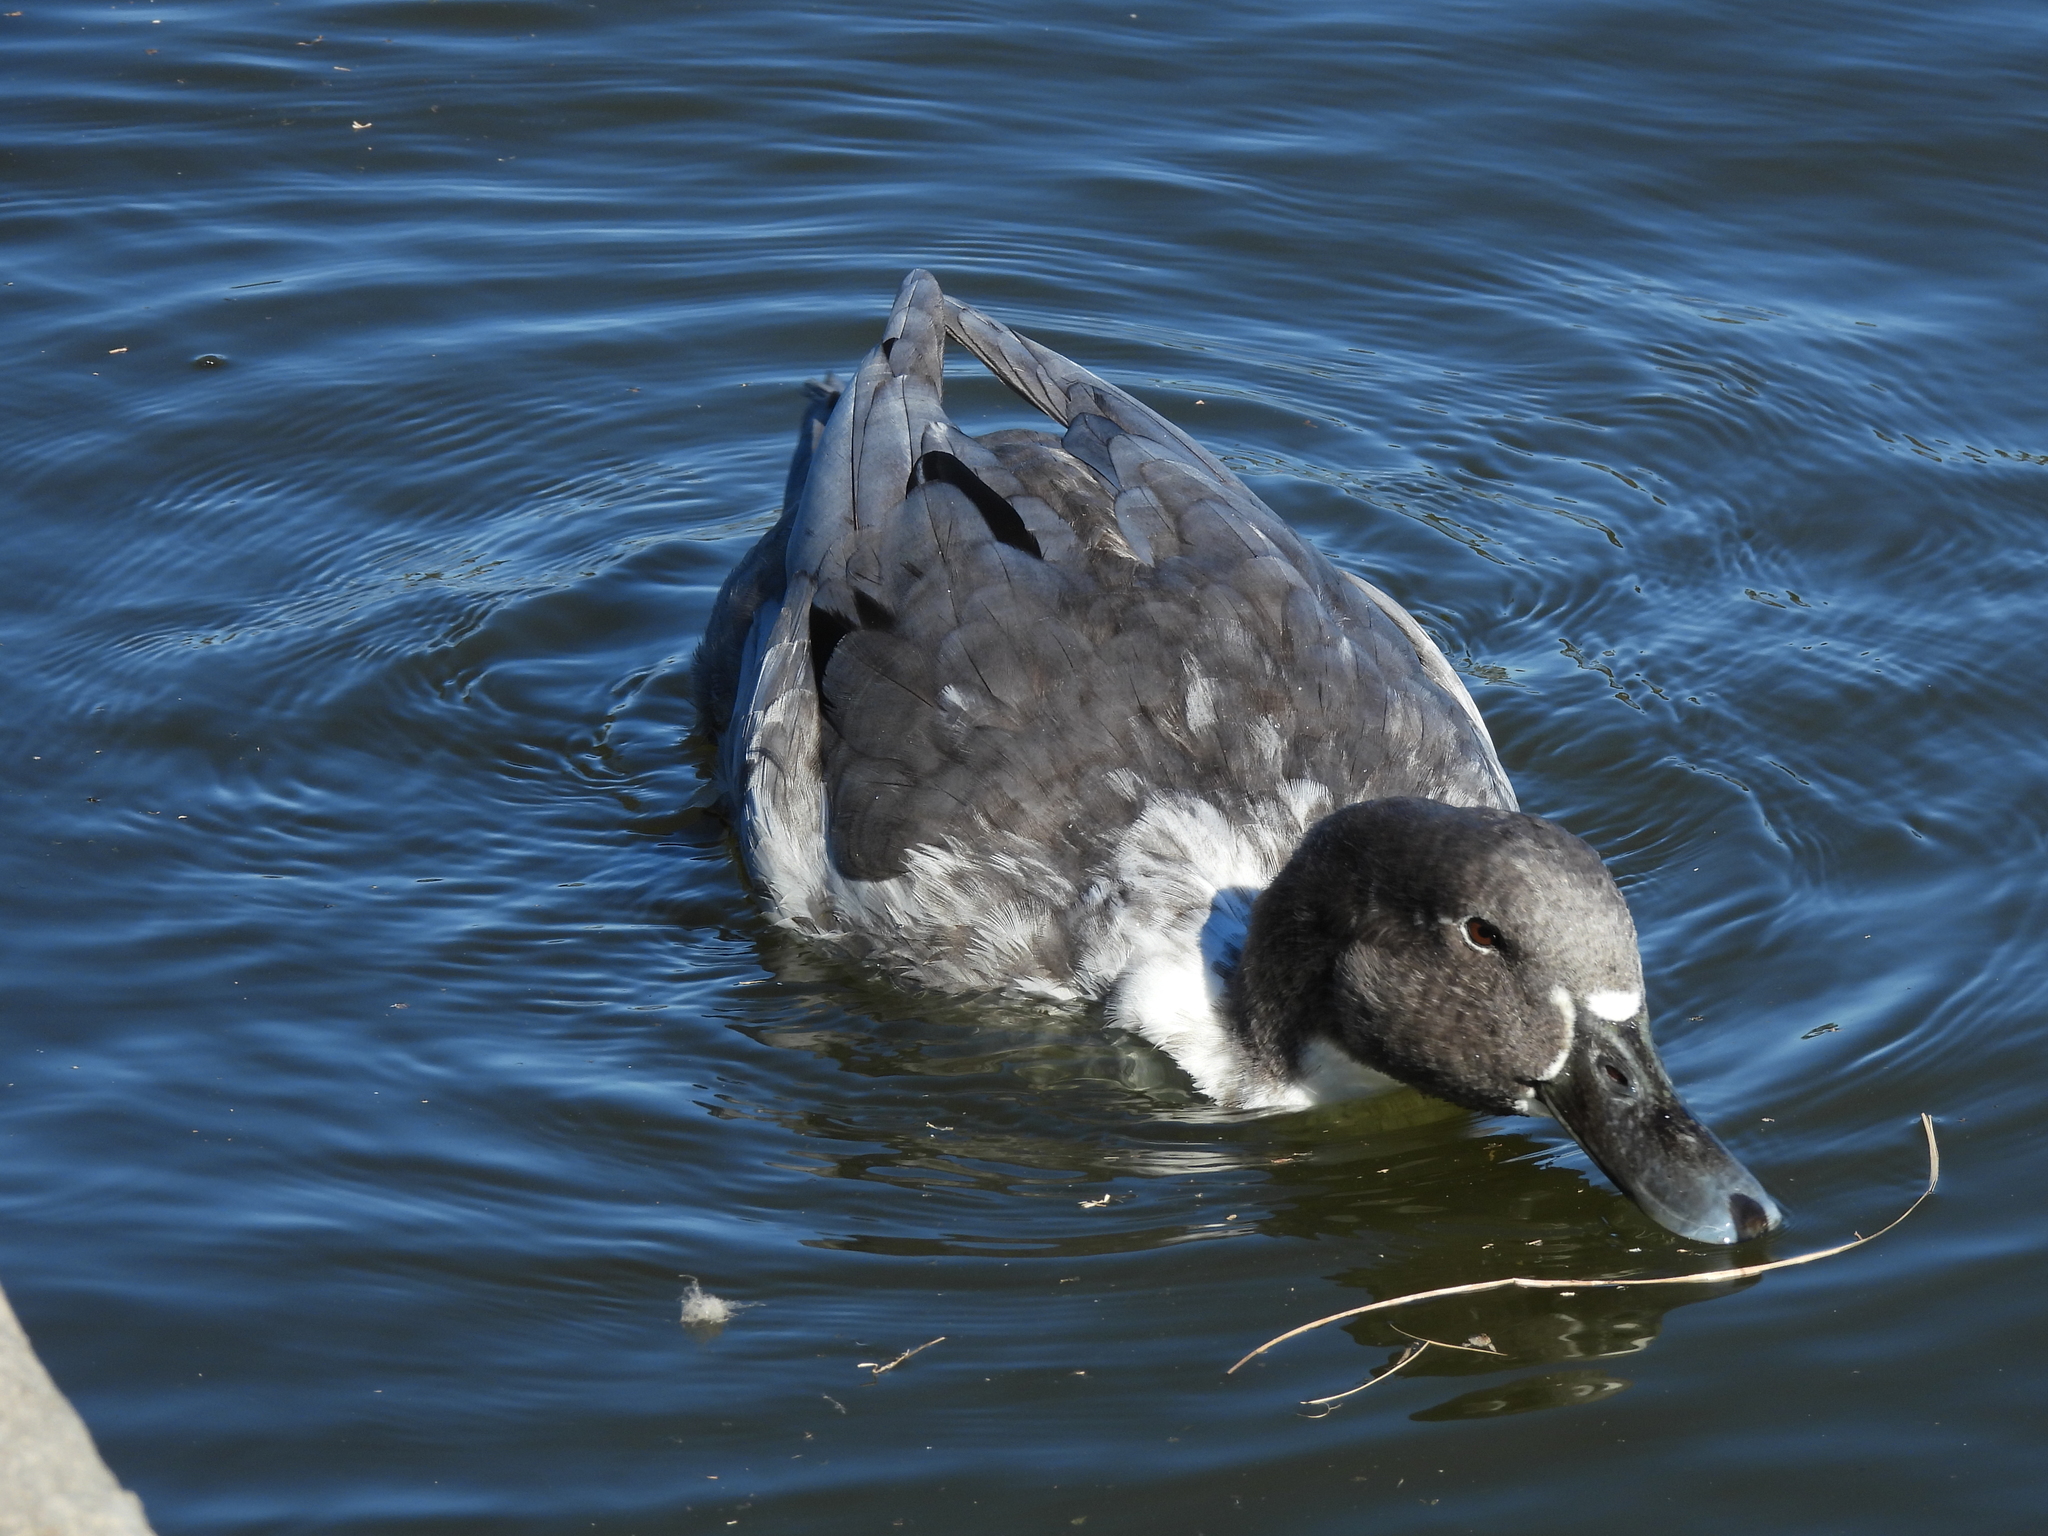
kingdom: Animalia
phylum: Chordata
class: Aves
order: Anseriformes
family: Anatidae
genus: Anas
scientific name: Anas platyrhynchos
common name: Mallard
